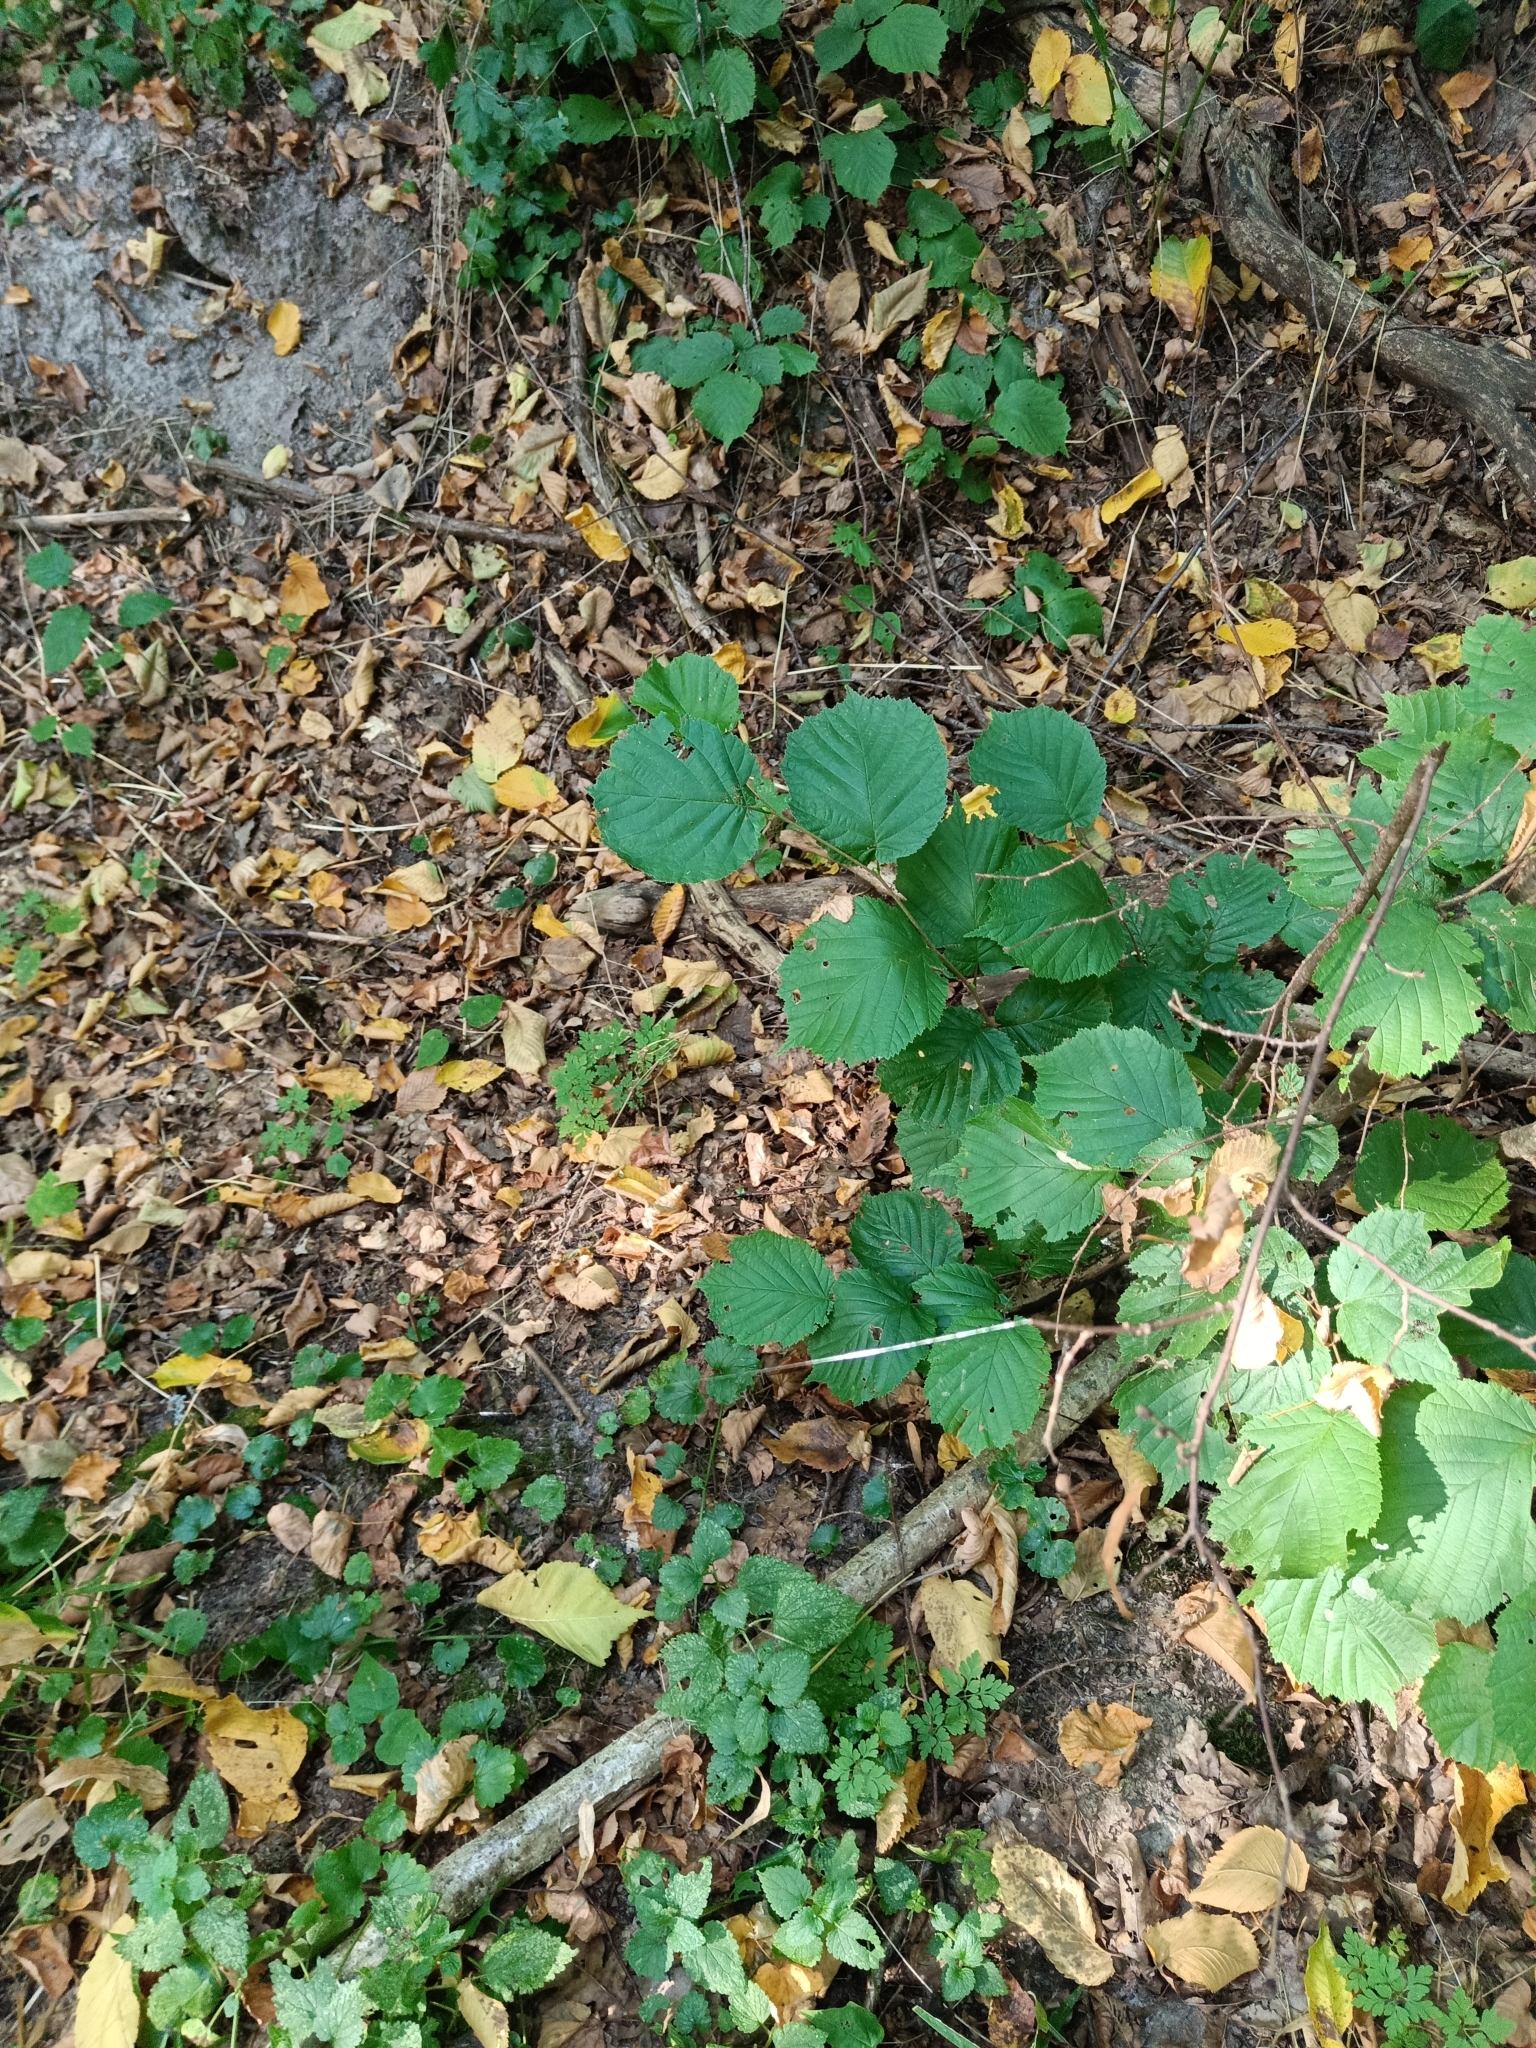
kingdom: Plantae
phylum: Tracheophyta
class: Magnoliopsida
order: Fagales
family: Betulaceae
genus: Corylus
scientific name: Corylus avellana
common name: European hazel
